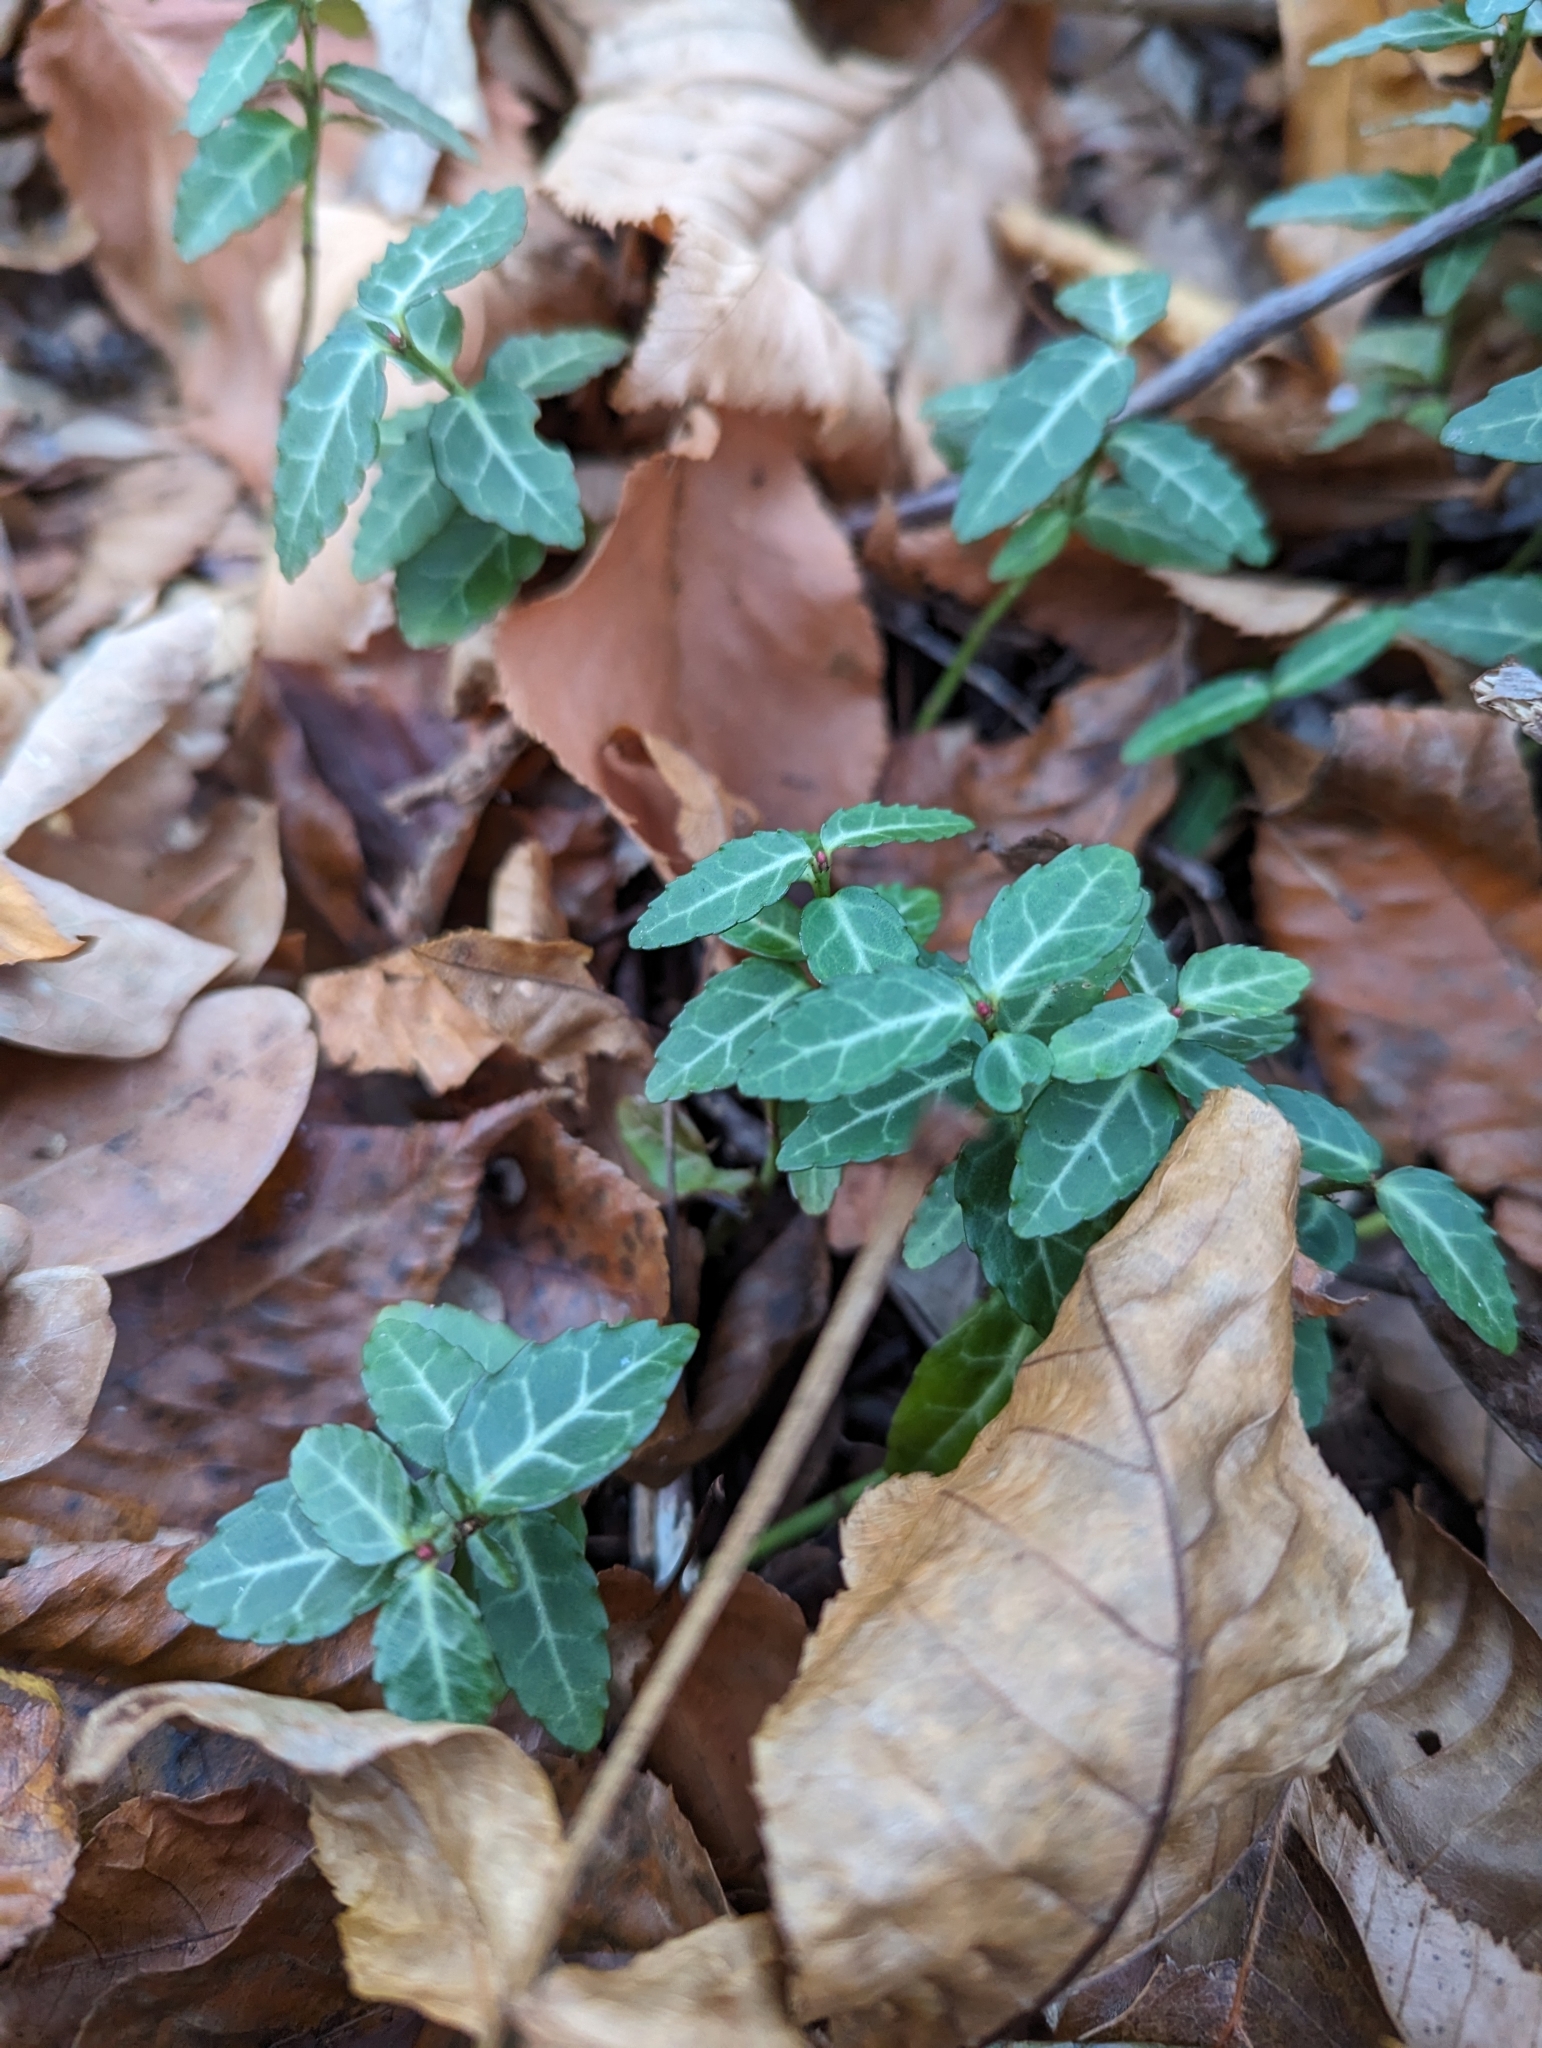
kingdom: Plantae
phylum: Tracheophyta
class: Magnoliopsida
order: Celastrales
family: Celastraceae
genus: Euonymus
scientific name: Euonymus fortunei
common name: Climbing euonymus
